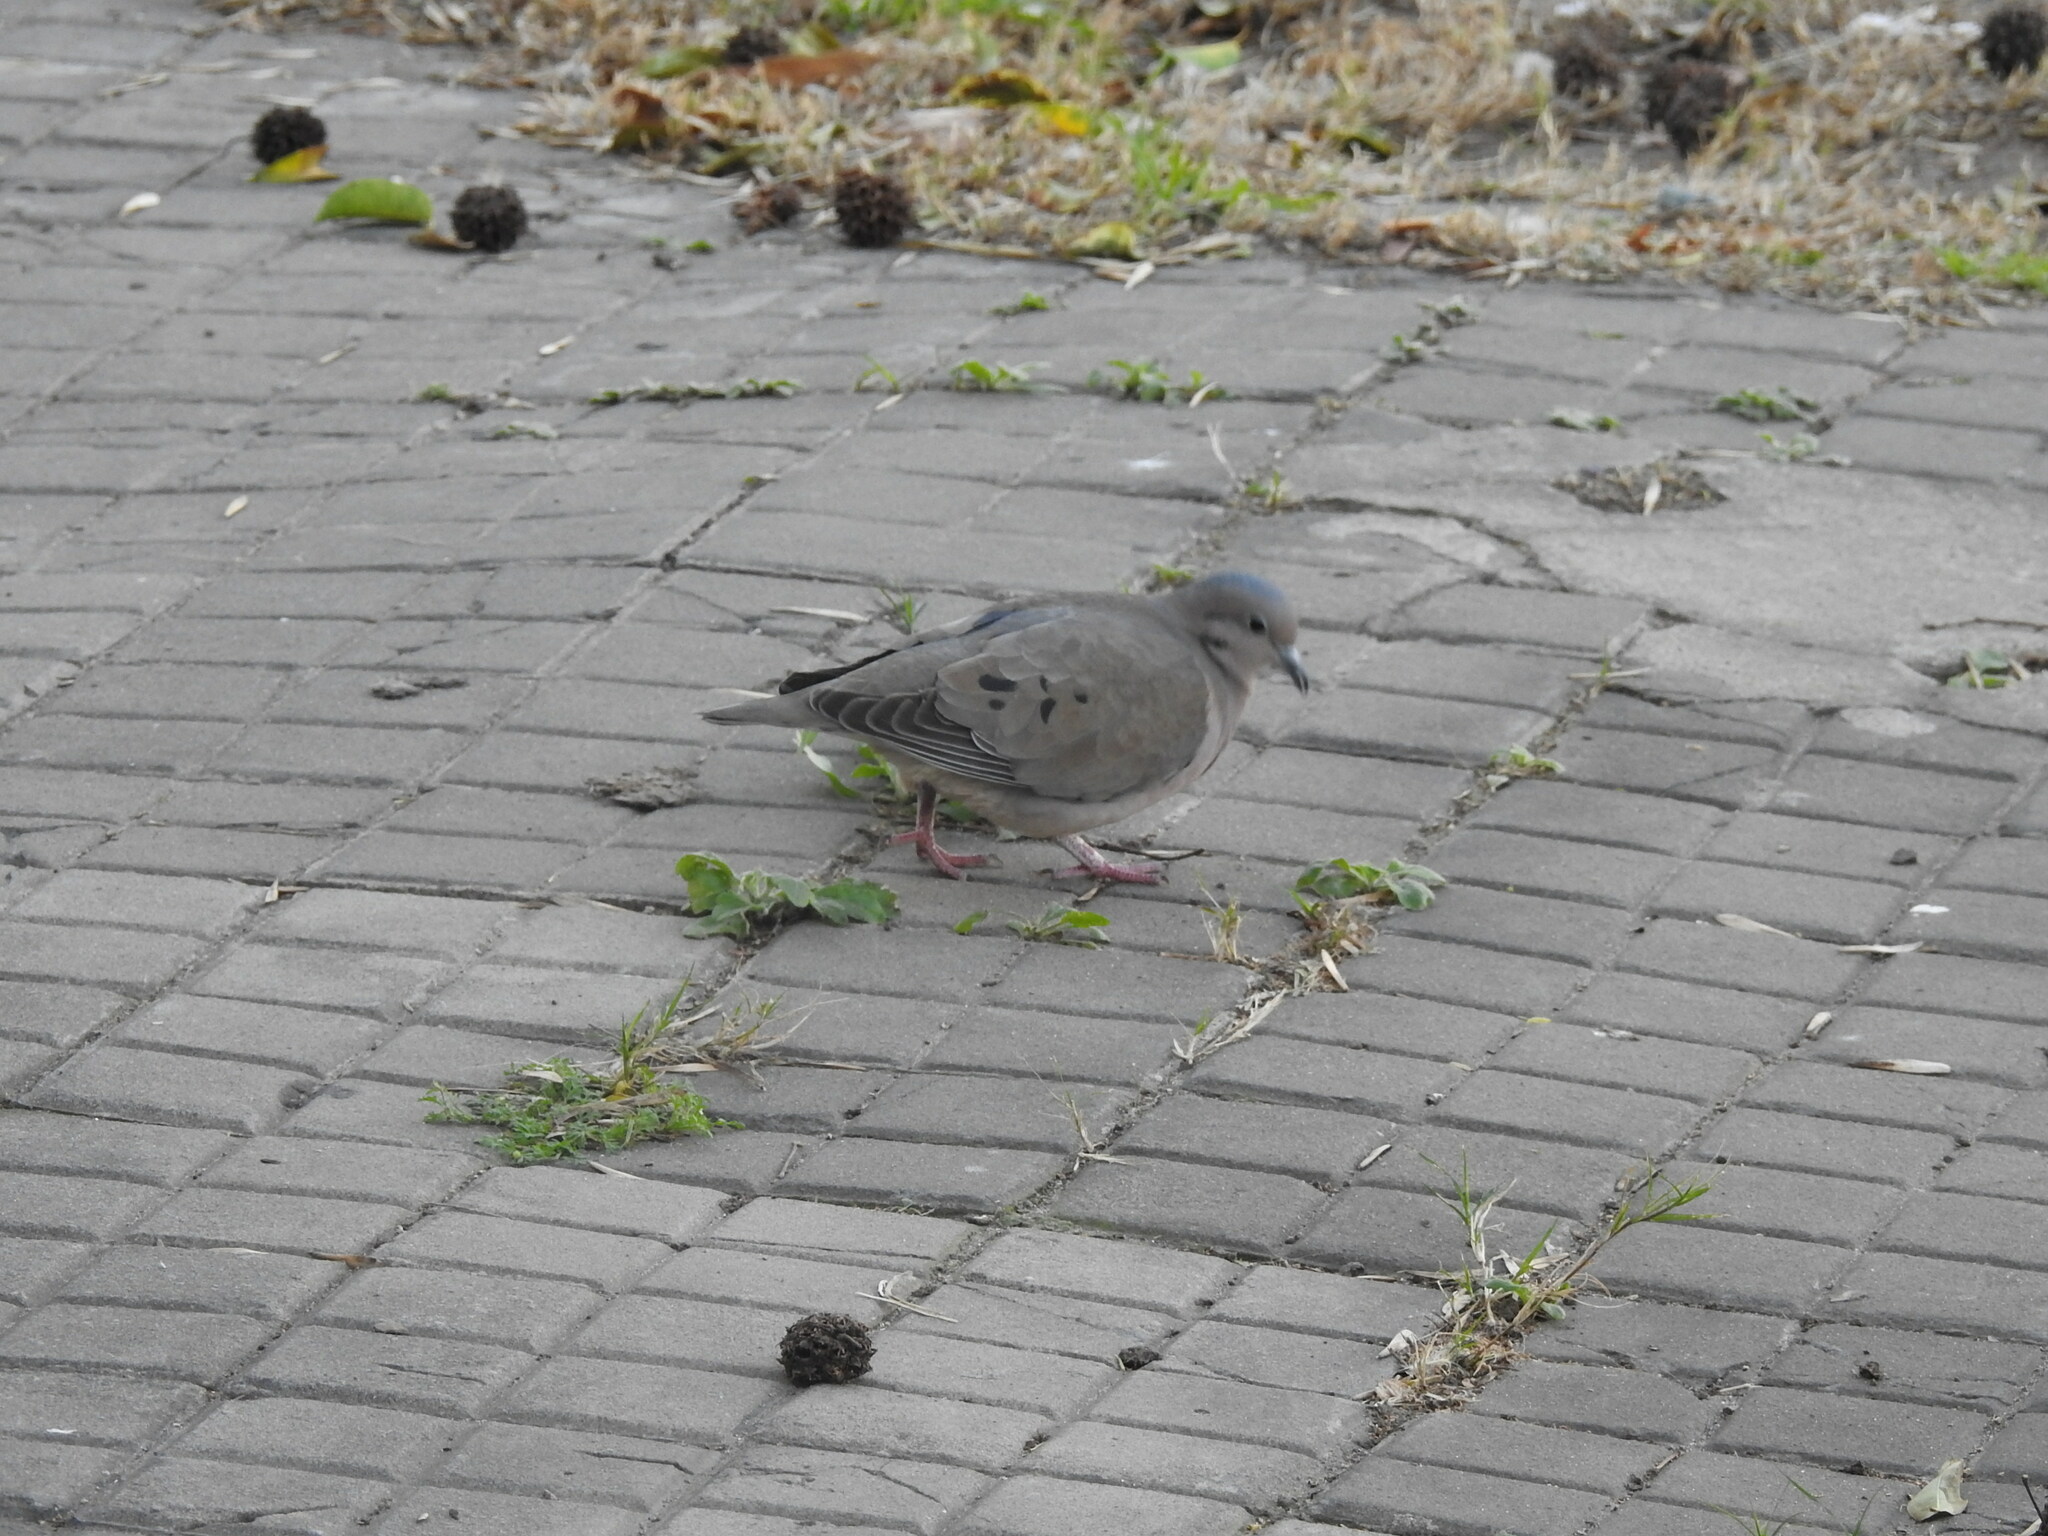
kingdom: Animalia
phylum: Chordata
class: Aves
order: Columbiformes
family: Columbidae
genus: Zenaida
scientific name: Zenaida auriculata
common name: Eared dove
